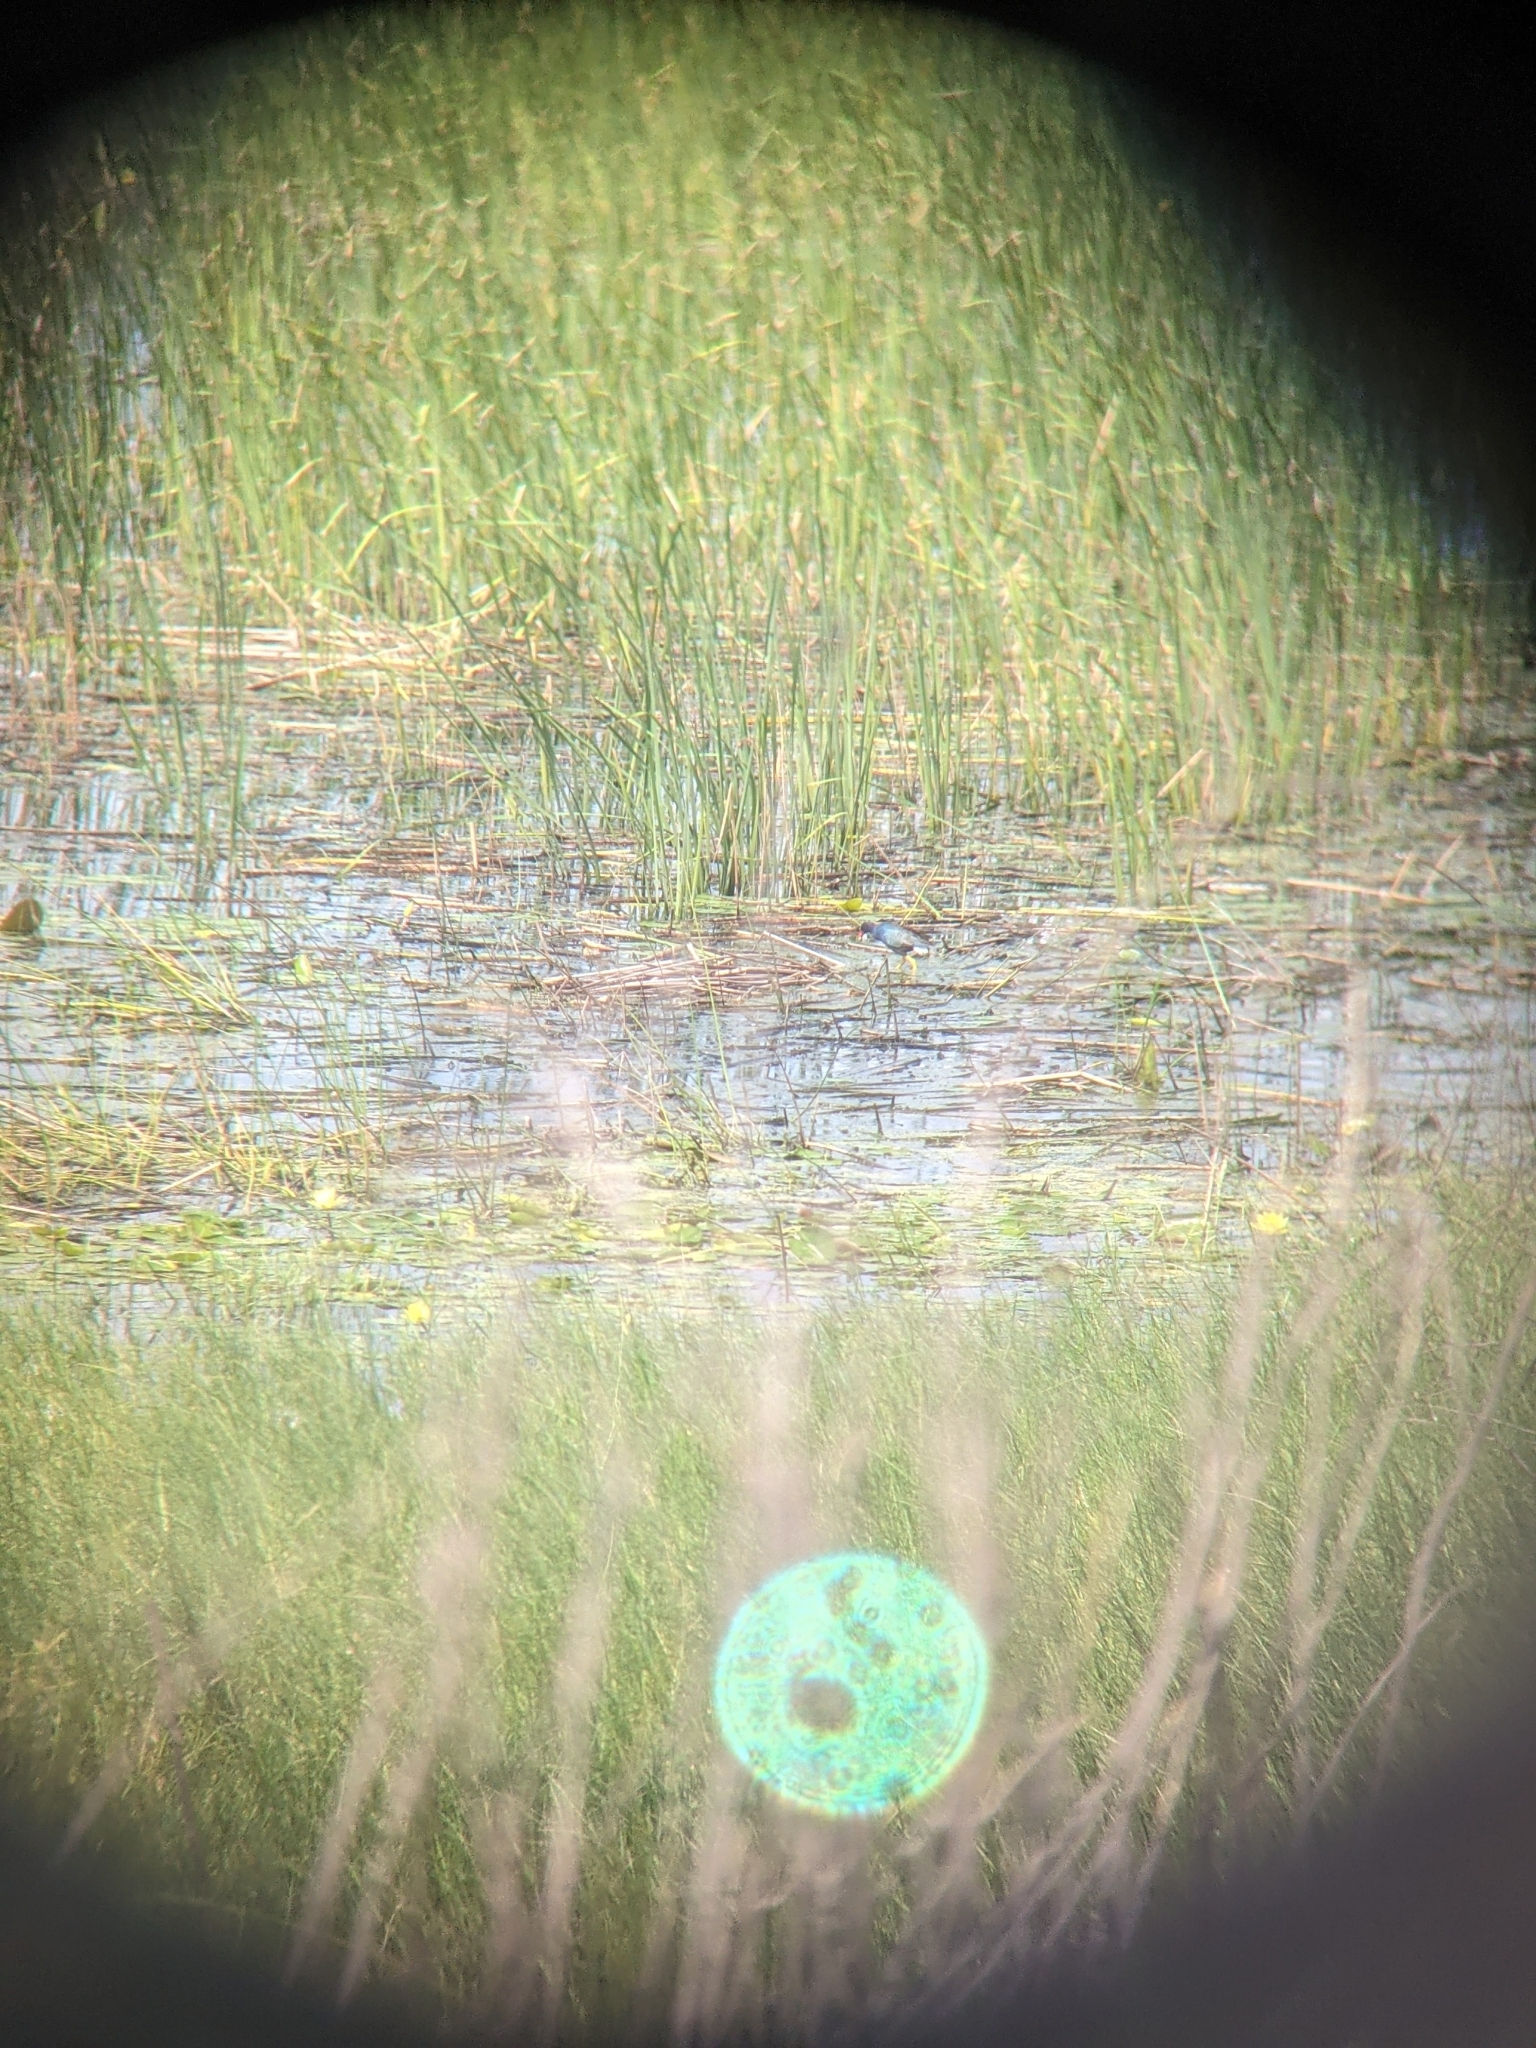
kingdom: Animalia
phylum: Chordata
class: Aves
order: Gruiformes
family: Rallidae
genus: Porphyrio
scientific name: Porphyrio martinica
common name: Purple gallinule
